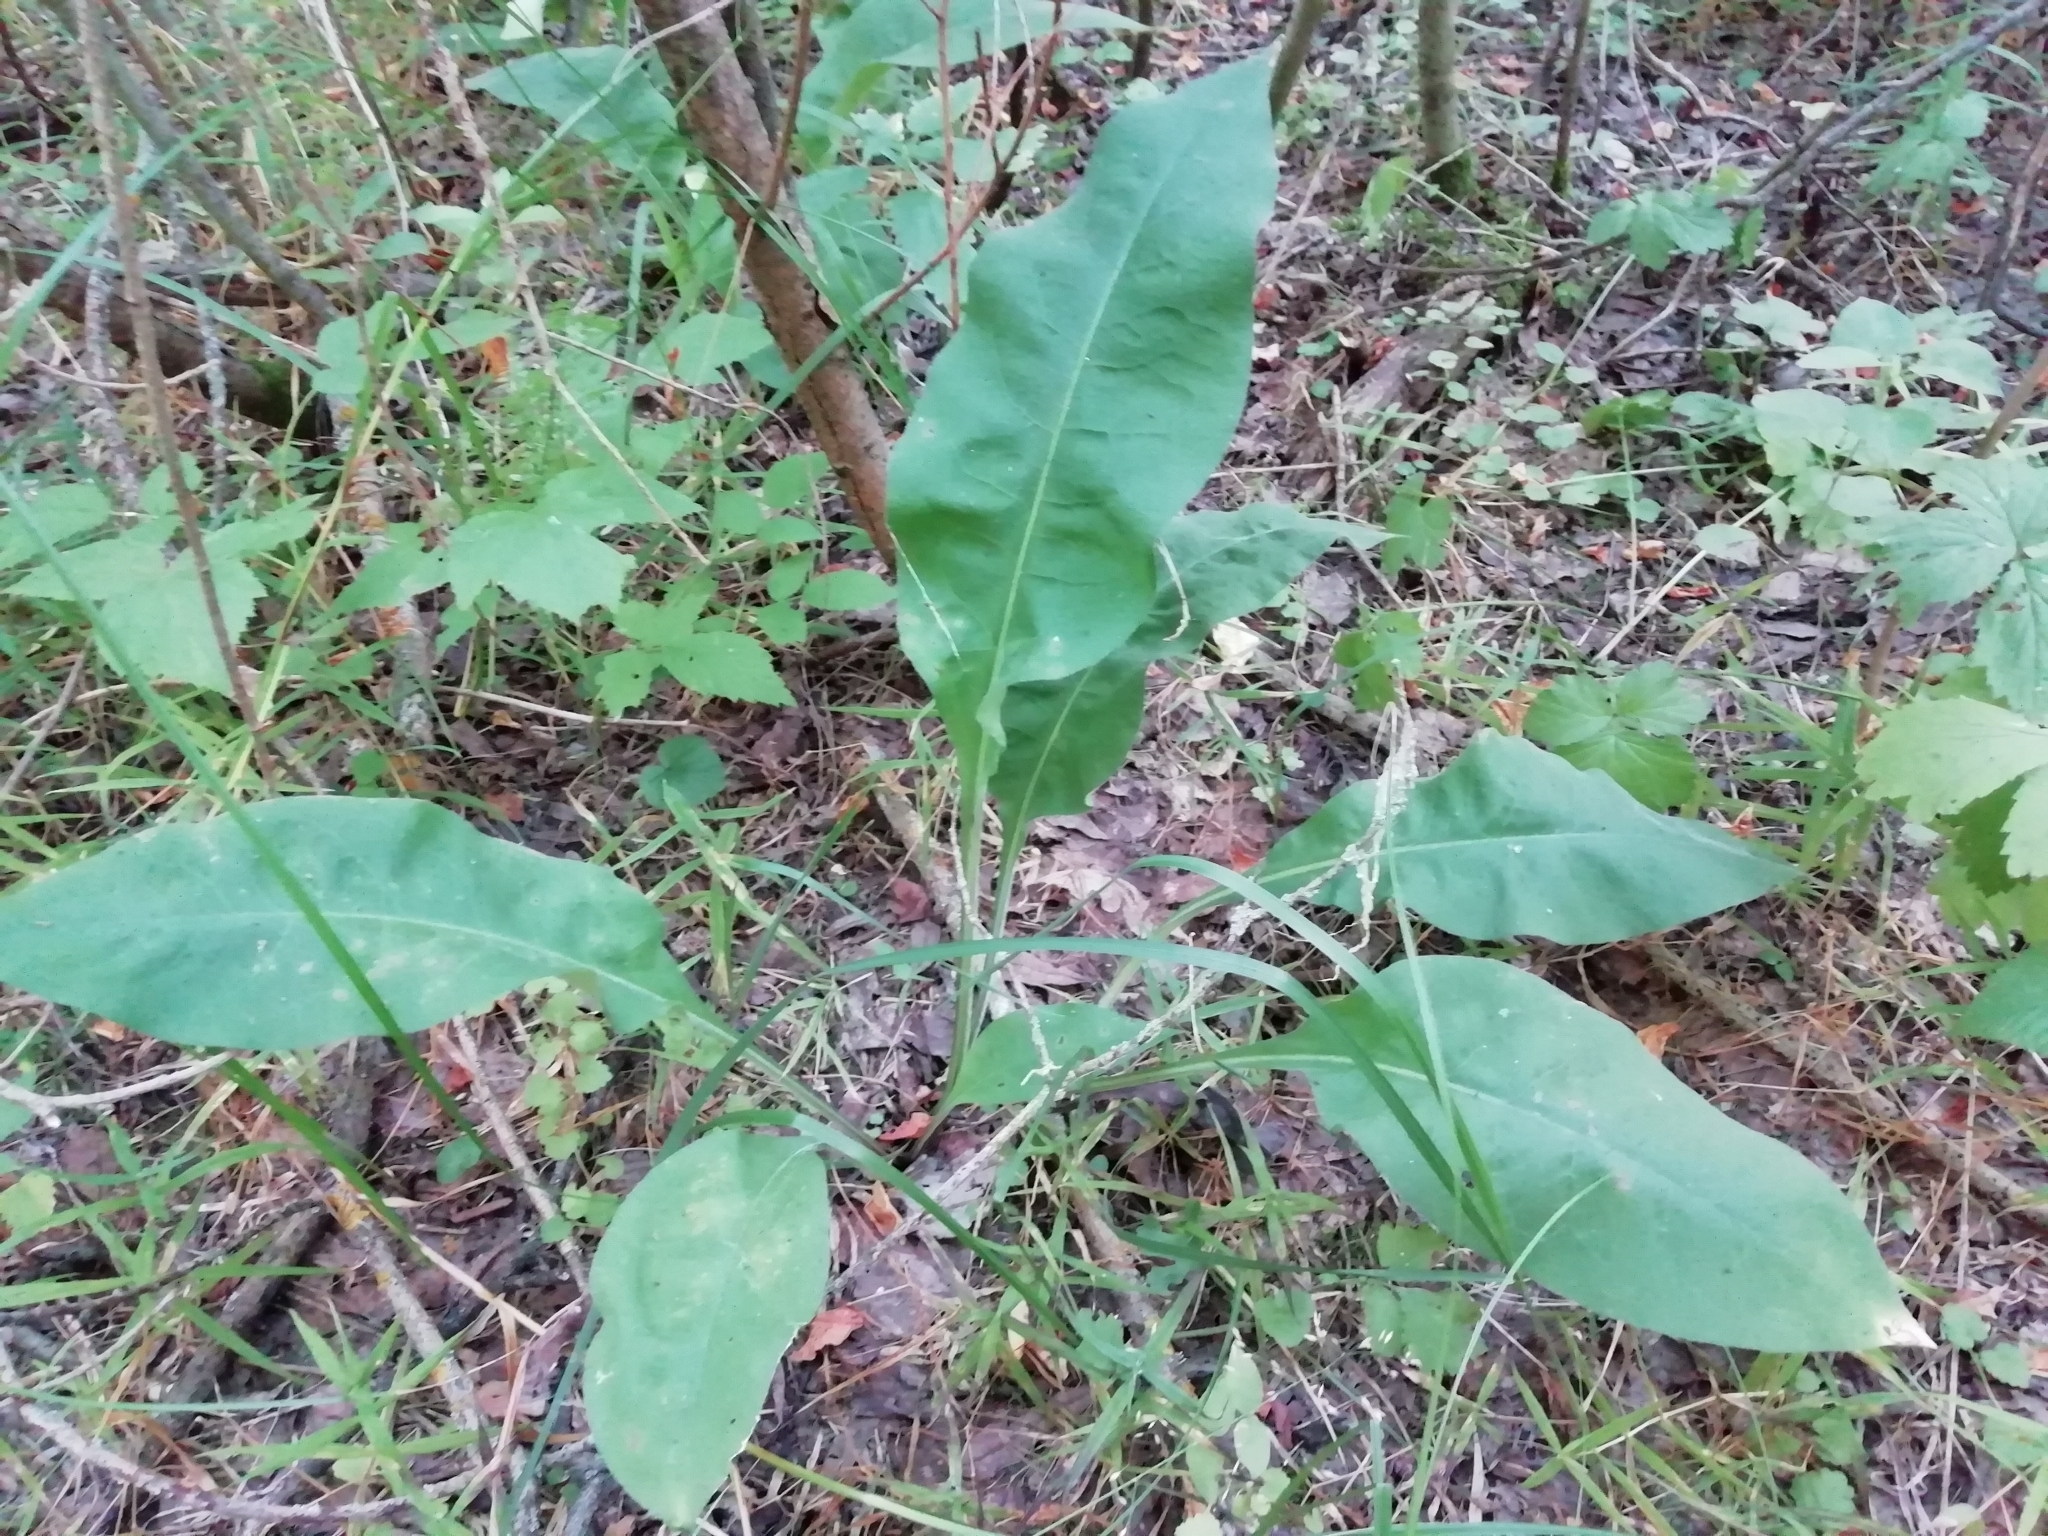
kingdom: Plantae
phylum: Tracheophyta
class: Magnoliopsida
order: Boraginales
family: Boraginaceae
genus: Pulmonaria
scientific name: Pulmonaria mollis
